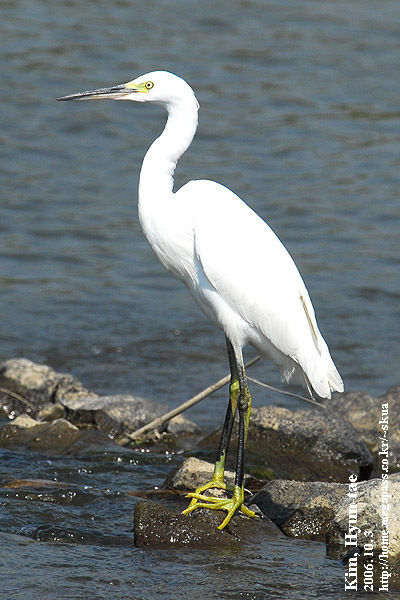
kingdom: Animalia
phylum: Chordata
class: Aves
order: Pelecaniformes
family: Ardeidae
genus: Egretta
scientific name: Egretta garzetta
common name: Little egret
